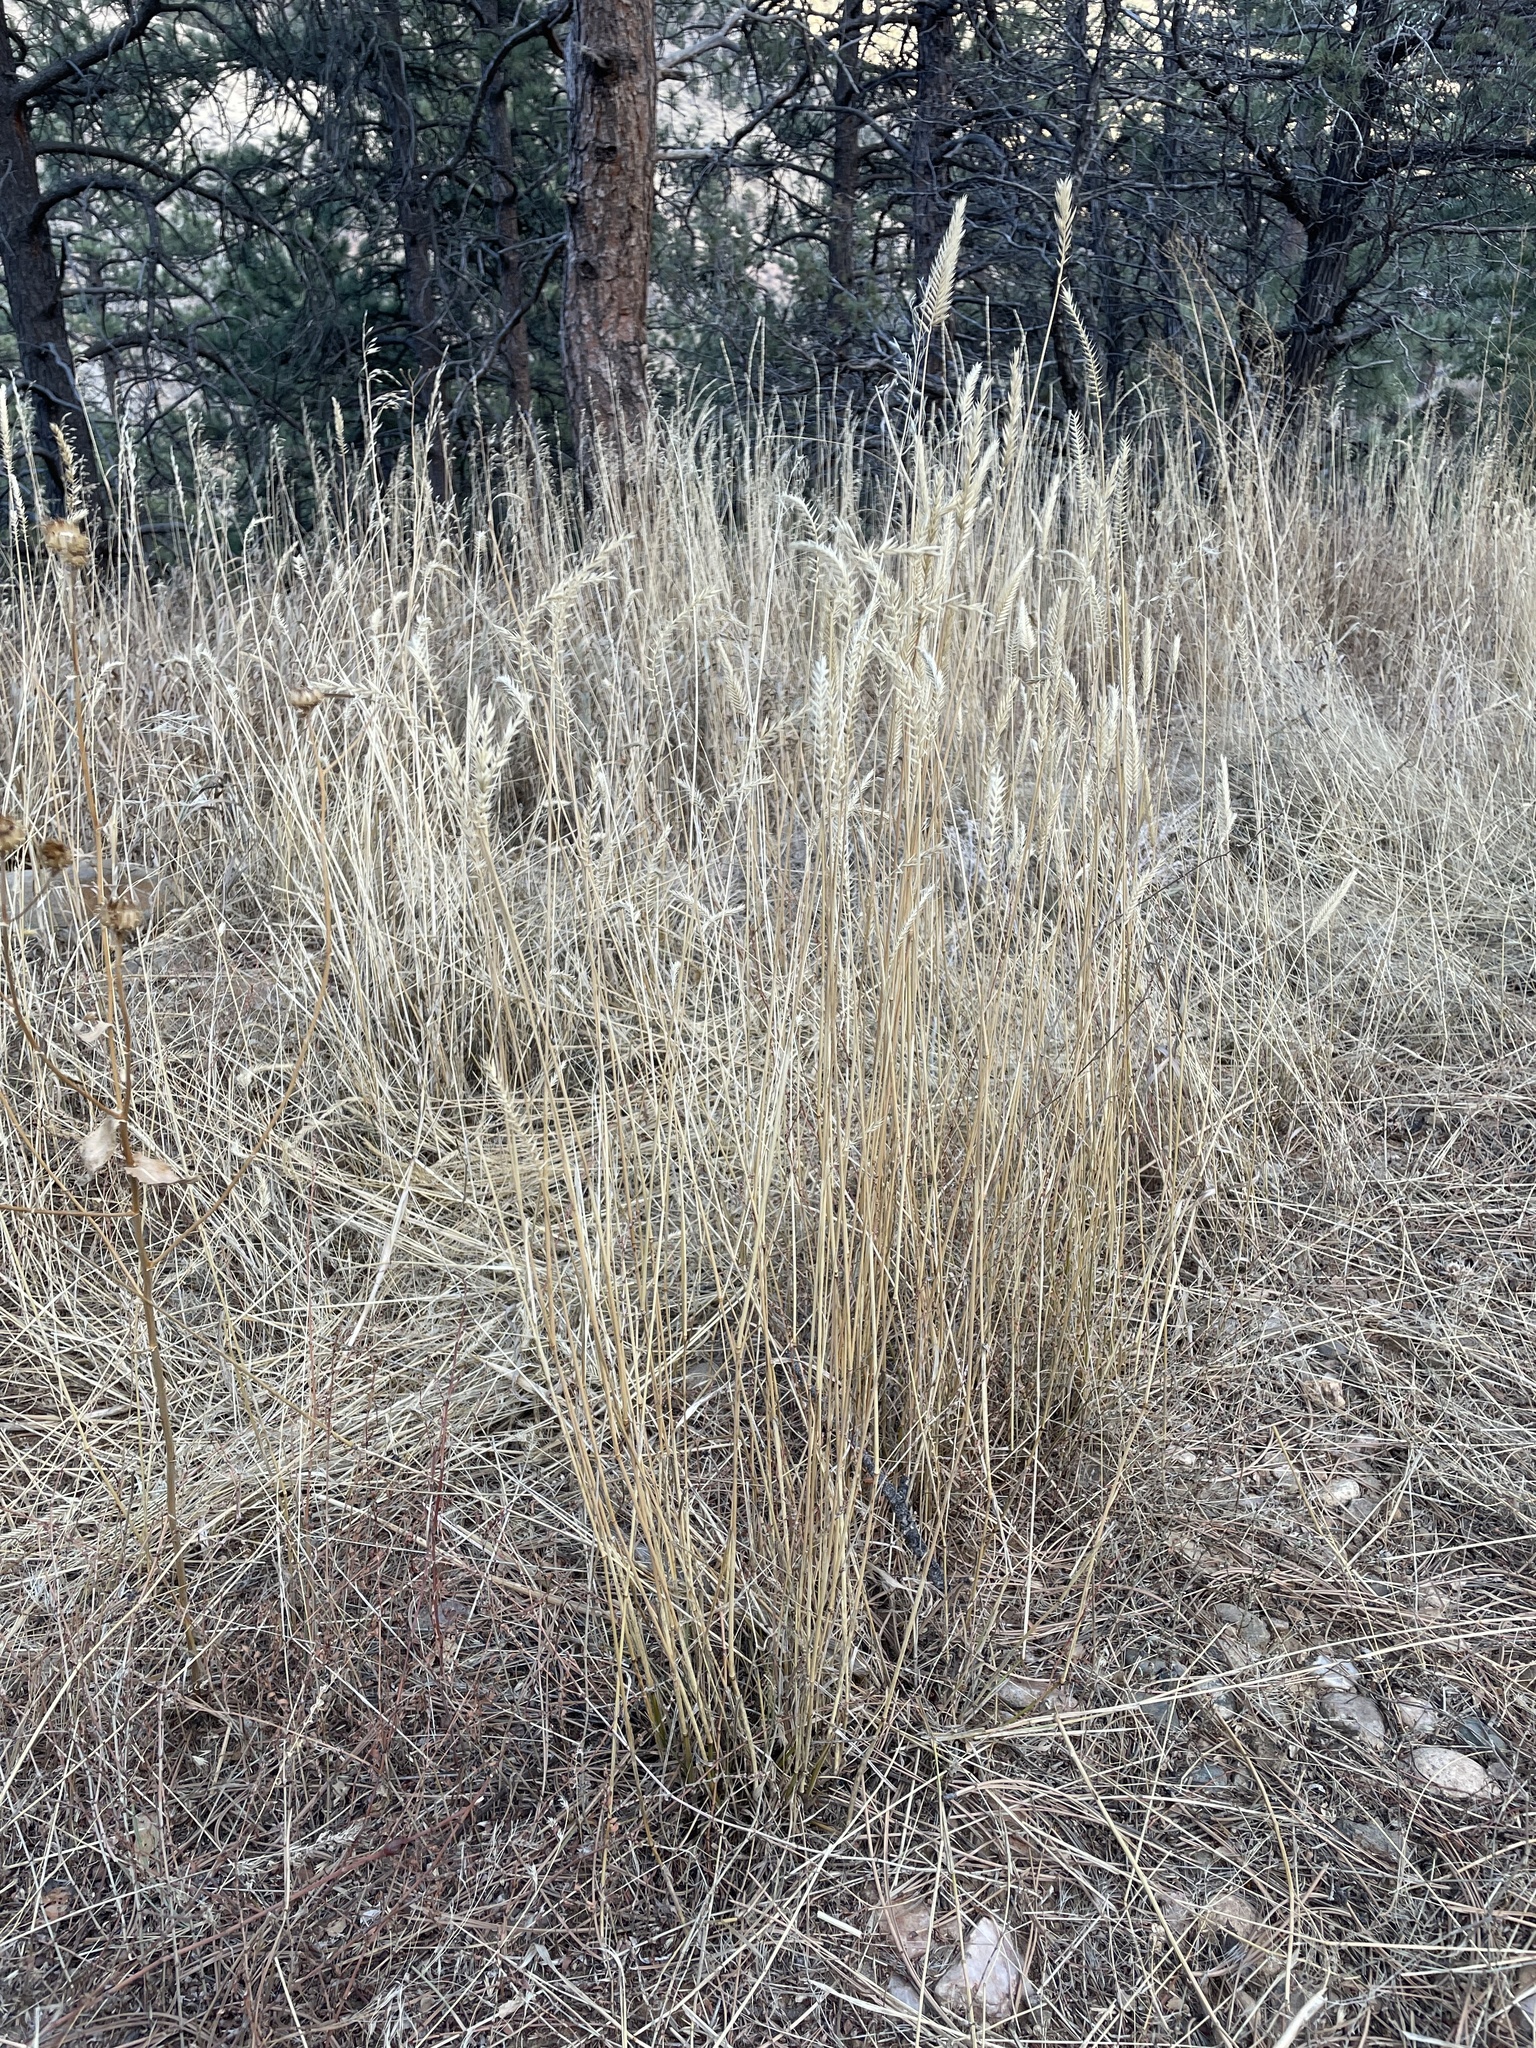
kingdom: Plantae
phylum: Tracheophyta
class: Liliopsida
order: Poales
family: Poaceae
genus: Agropyron
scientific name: Agropyron cristatum
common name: Crested wheatgrass
